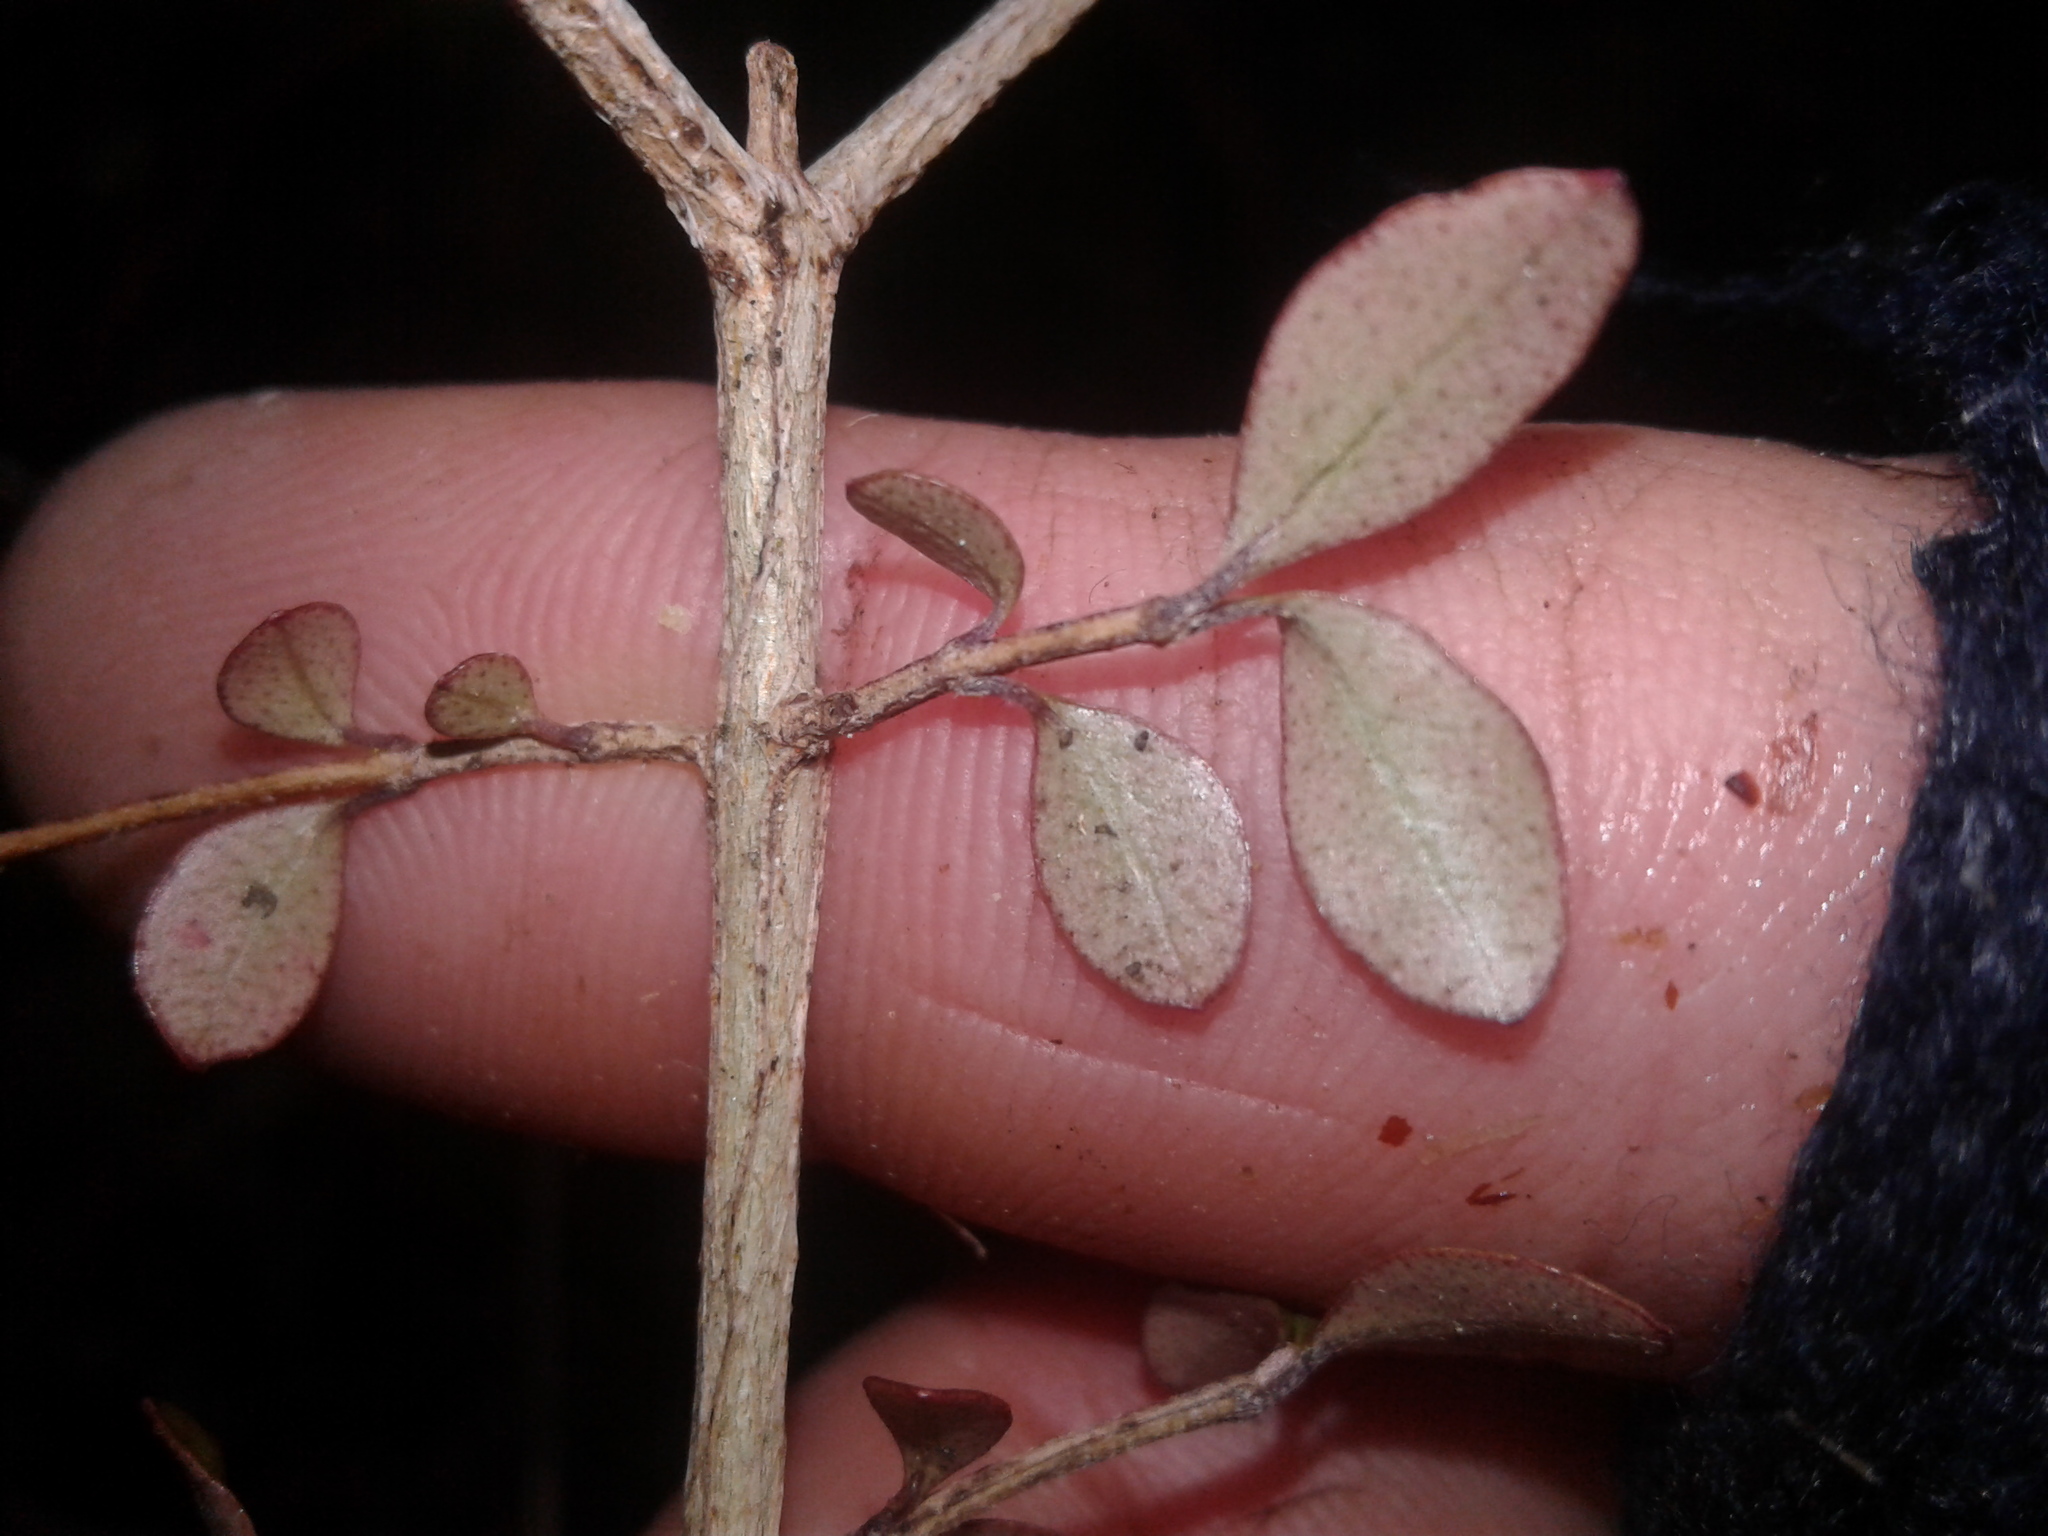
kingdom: Plantae
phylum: Tracheophyta
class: Magnoliopsida
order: Myrtales
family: Myrtaceae
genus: Neomyrtus
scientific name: Neomyrtus pedunculata
